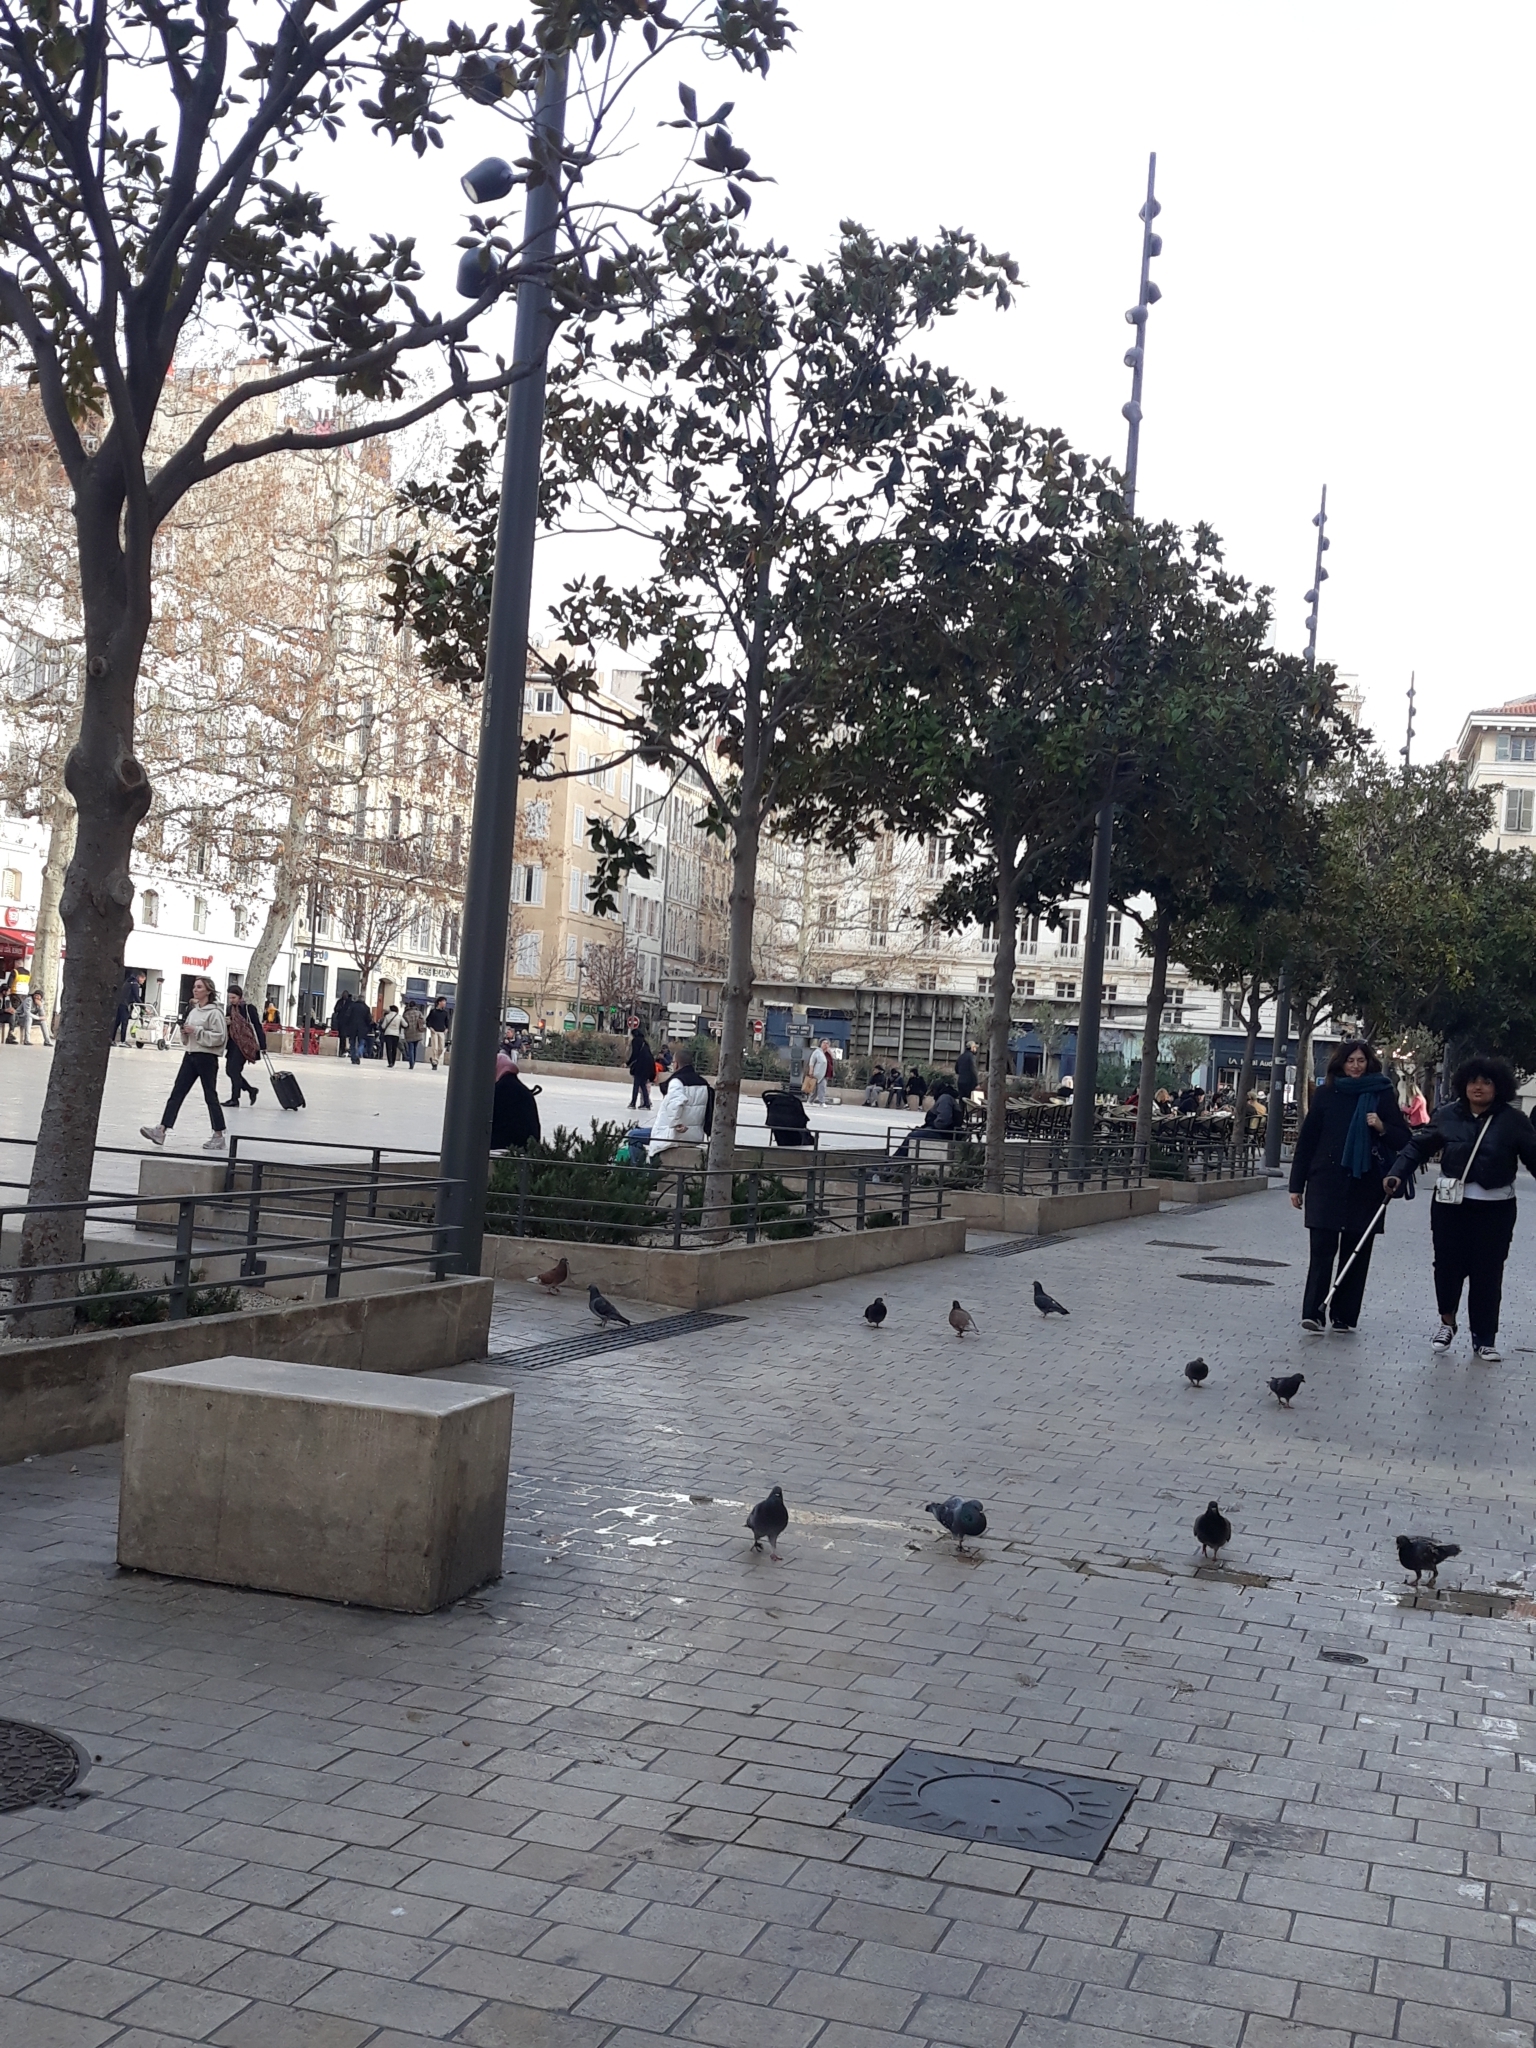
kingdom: Animalia
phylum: Chordata
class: Aves
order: Columbiformes
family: Columbidae
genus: Columba
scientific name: Columba livia
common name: Rock pigeon
